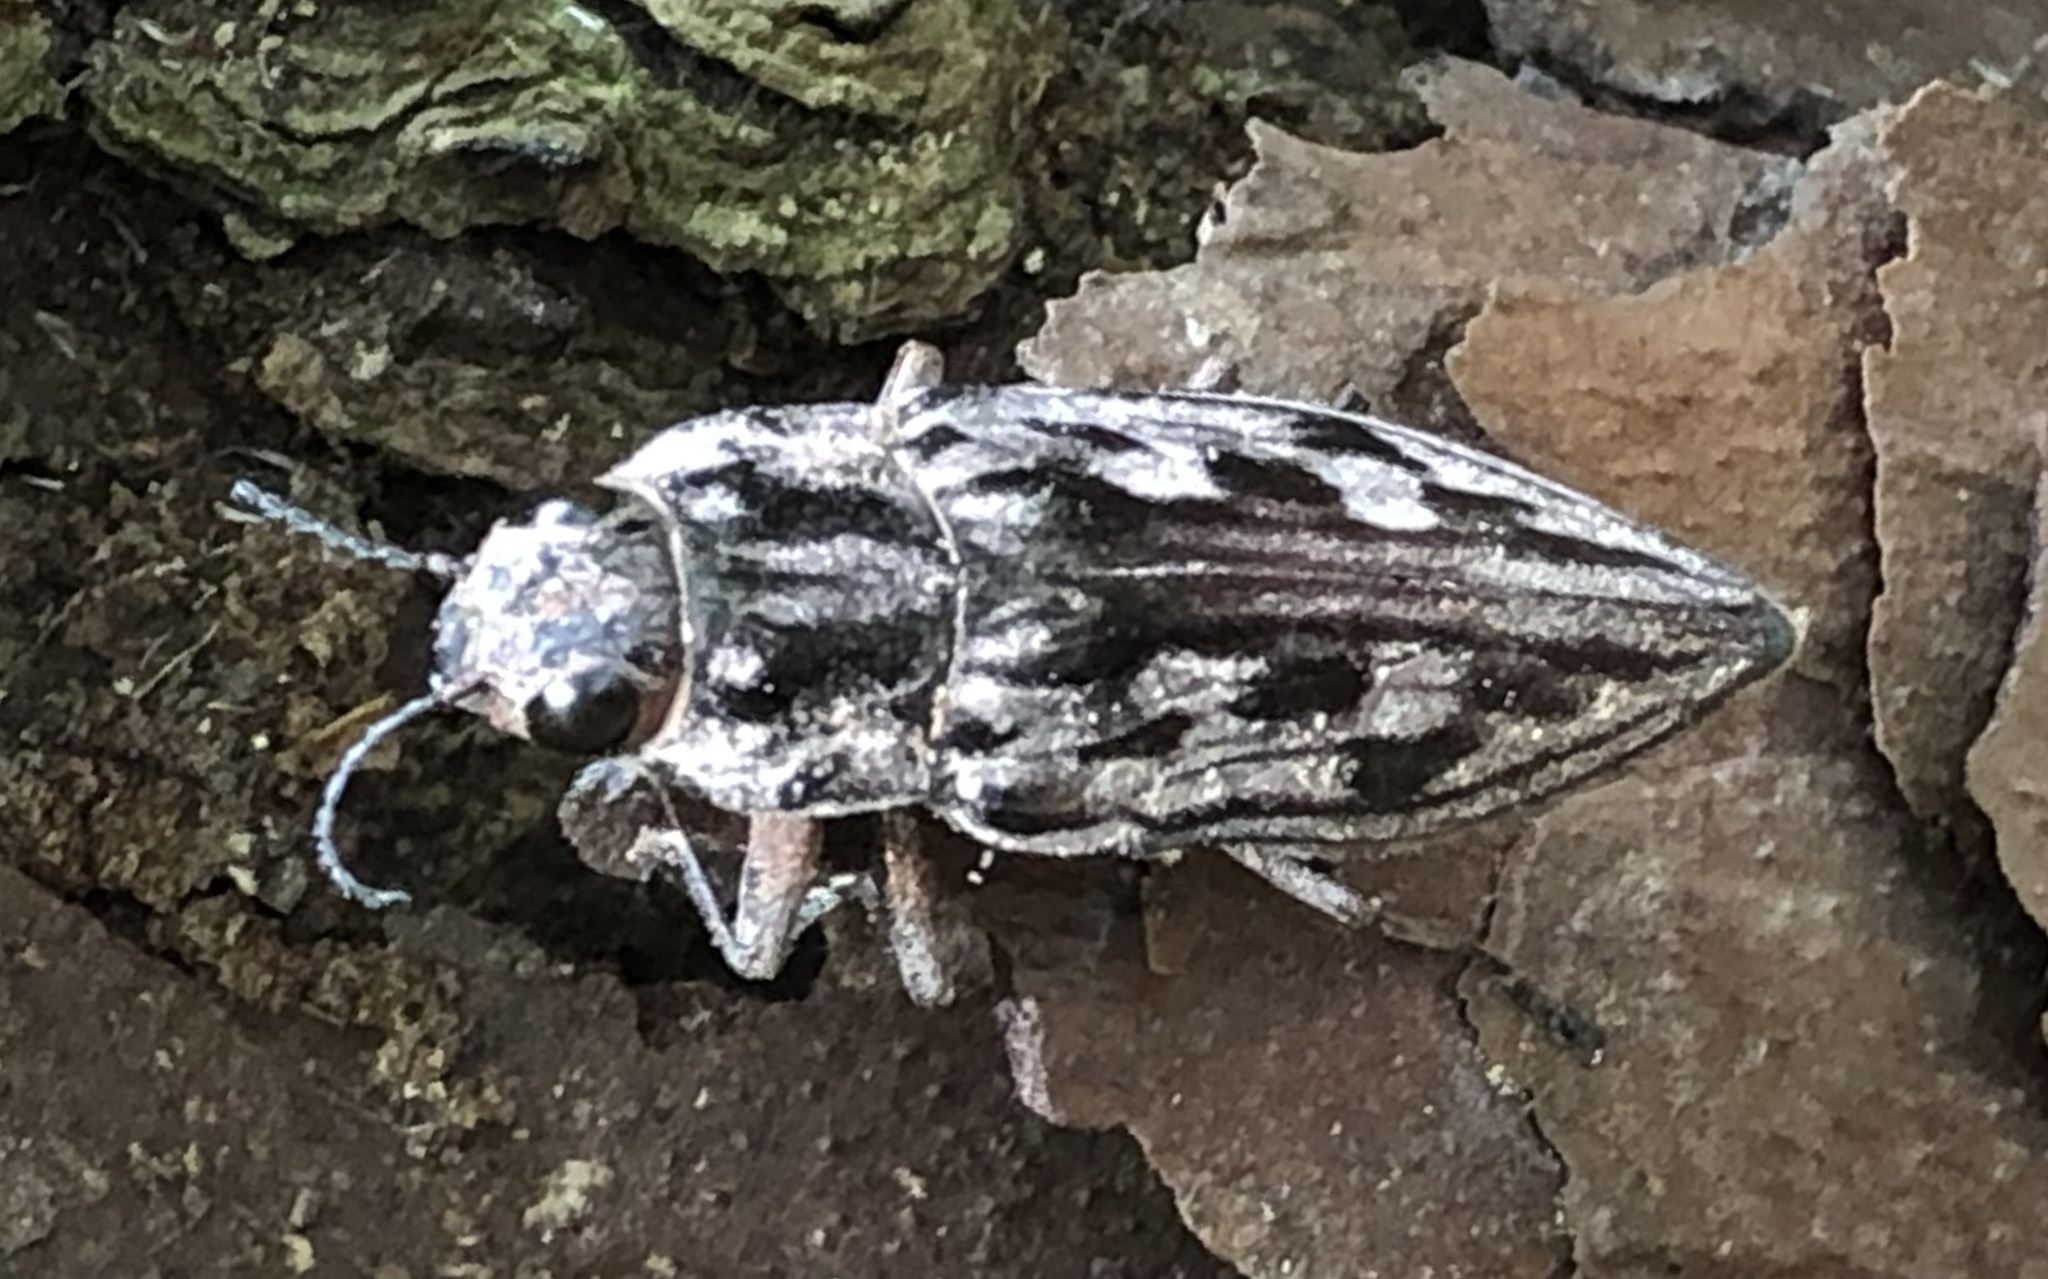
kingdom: Animalia
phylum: Arthropoda
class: Insecta
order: Coleoptera
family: Buprestidae
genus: Chalcophora
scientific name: Chalcophora virginiensis
